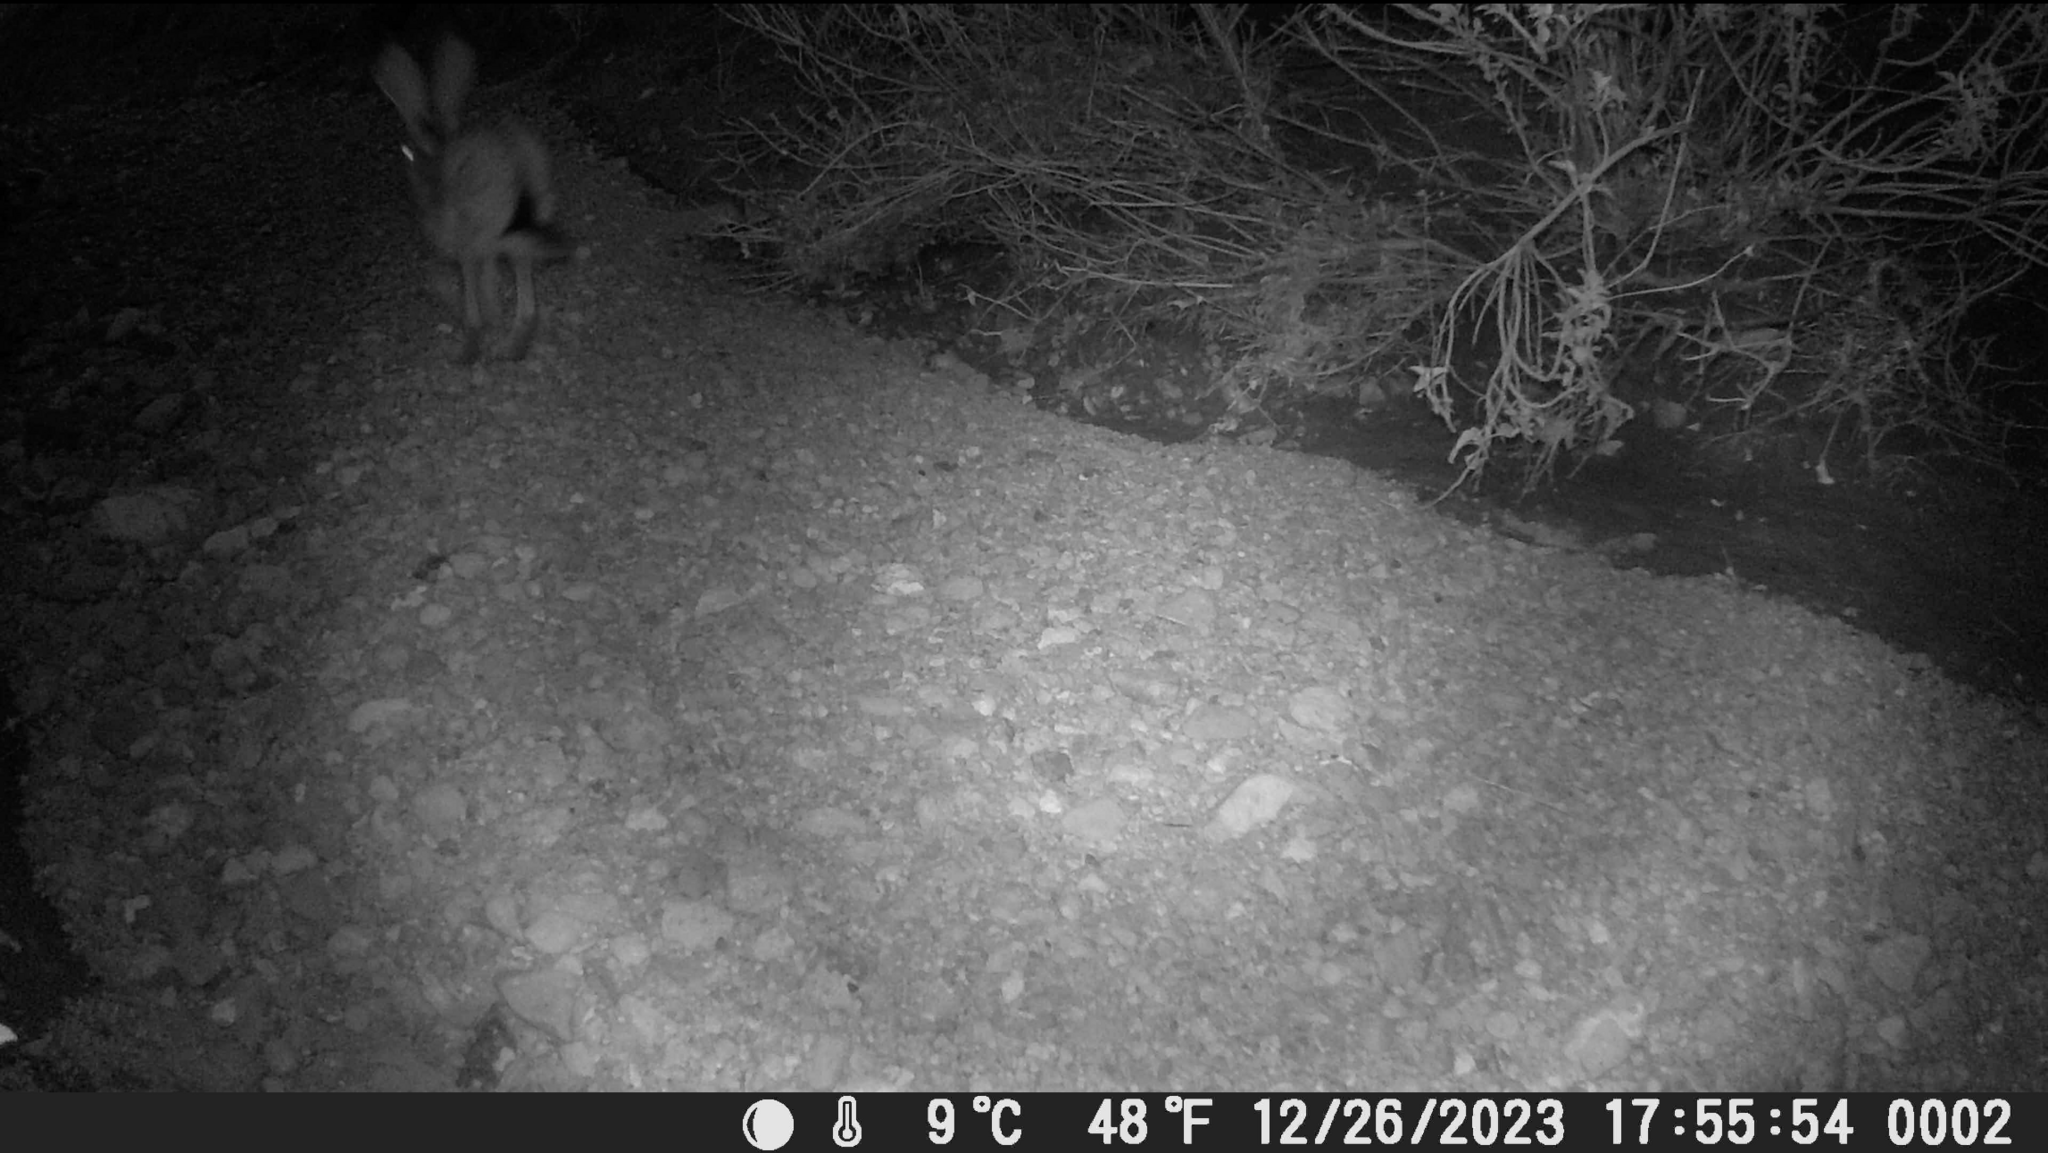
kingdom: Animalia
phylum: Chordata
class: Mammalia
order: Lagomorpha
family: Leporidae
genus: Lepus
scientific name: Lepus californicus
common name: Black-tailed jackrabbit
